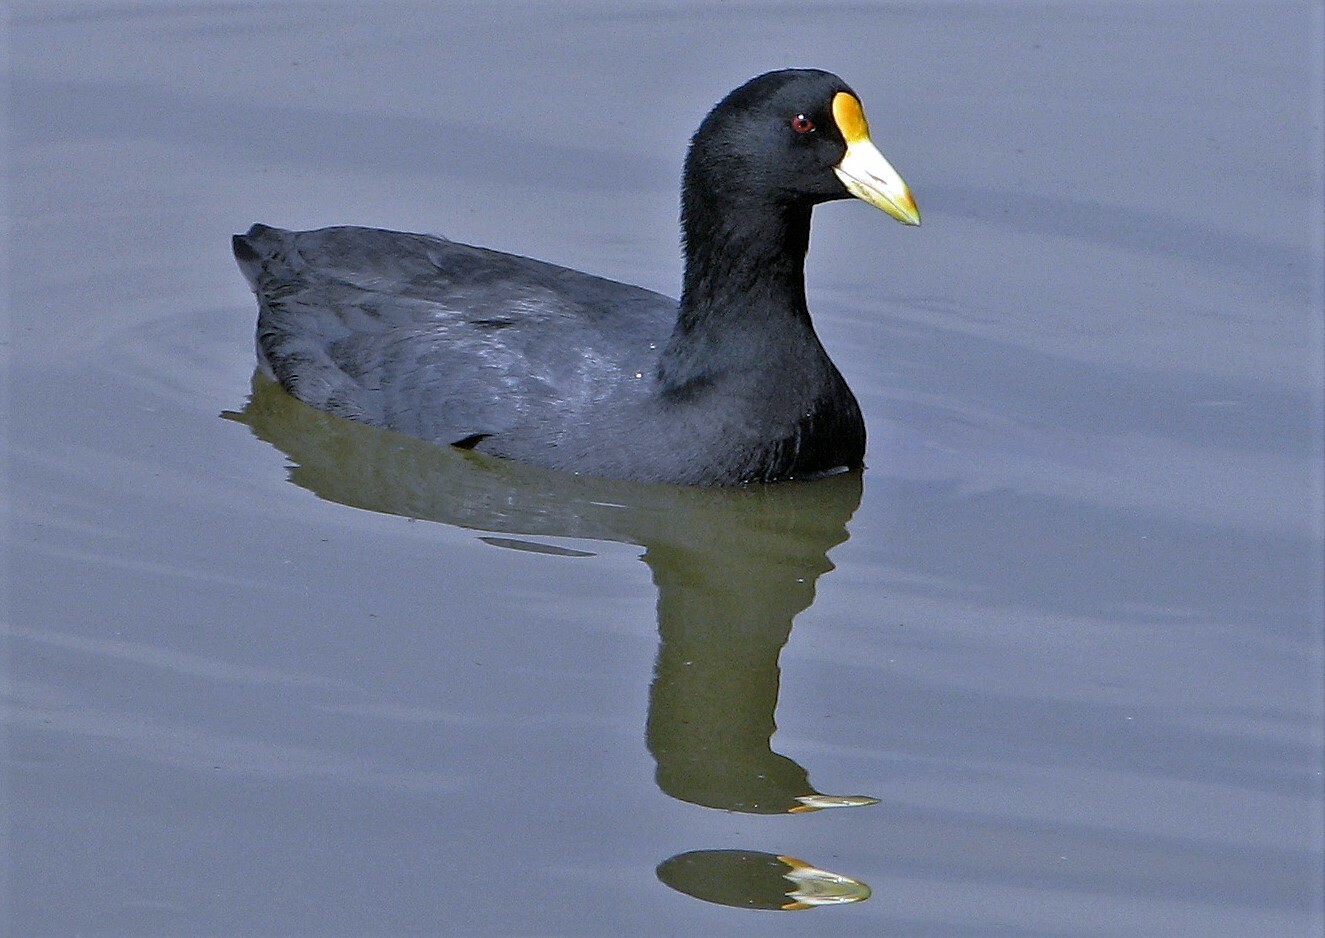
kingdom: Animalia
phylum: Chordata
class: Aves
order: Gruiformes
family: Rallidae
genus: Fulica
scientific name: Fulica leucoptera
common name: White-winged coot
